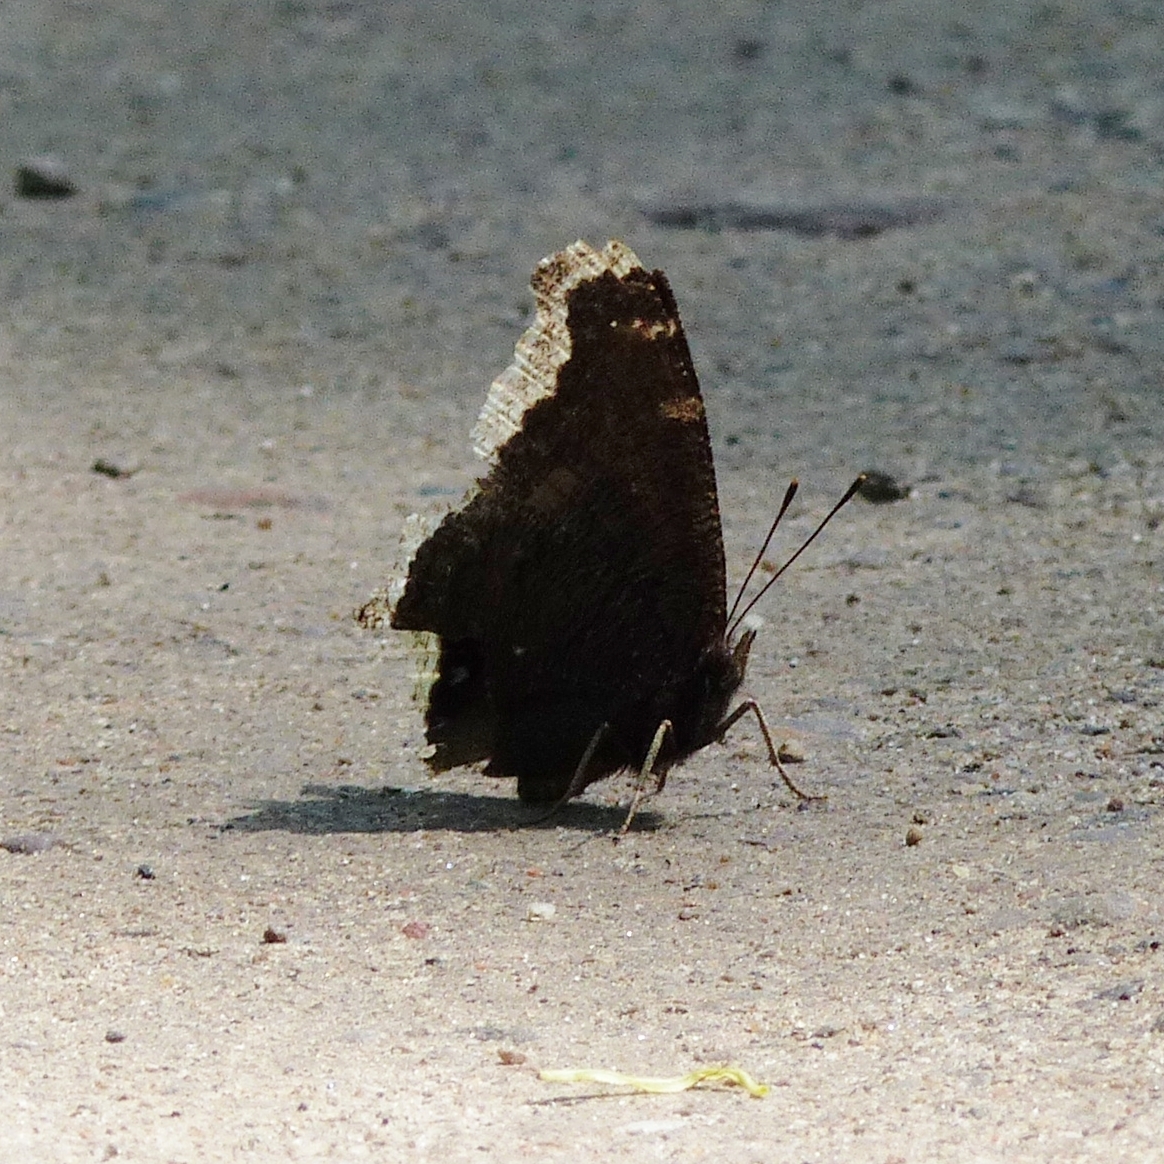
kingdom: Animalia
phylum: Arthropoda
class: Insecta
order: Lepidoptera
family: Nymphalidae
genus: Nymphalis
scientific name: Nymphalis antiopa
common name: Camberwell beauty
